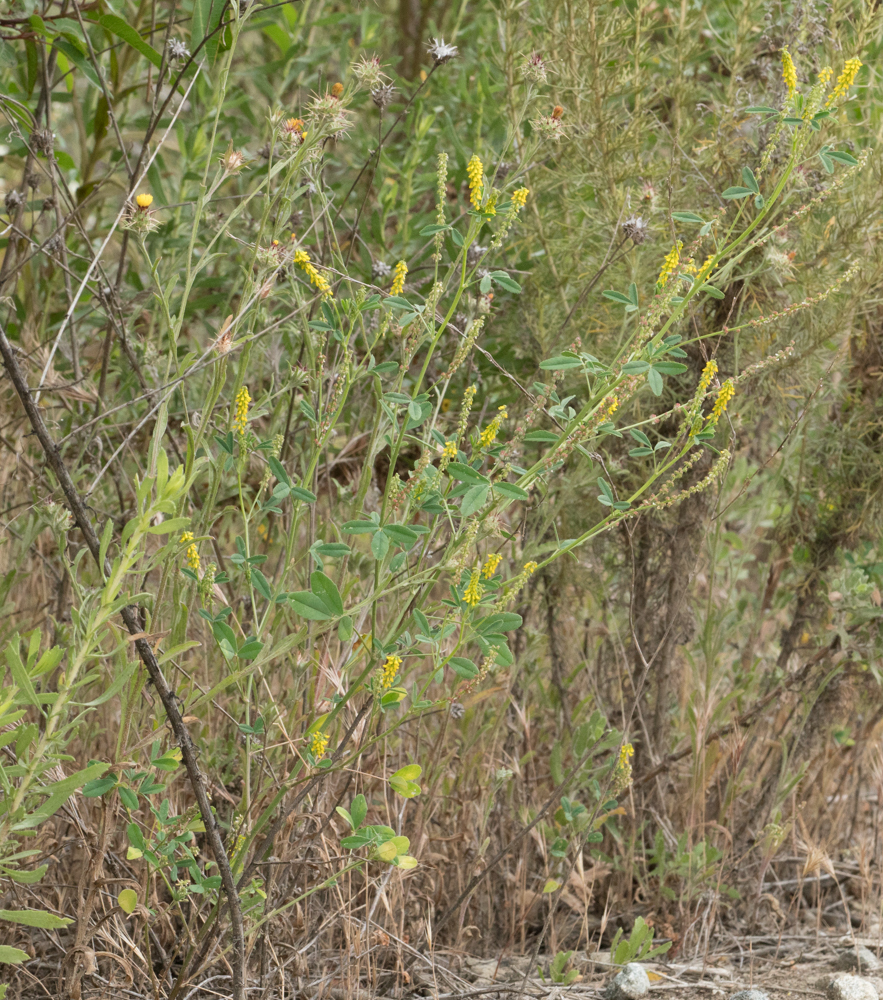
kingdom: Plantae
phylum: Tracheophyta
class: Magnoliopsida
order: Fabales
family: Fabaceae
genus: Melilotus
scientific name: Melilotus indicus
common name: Small melilot
